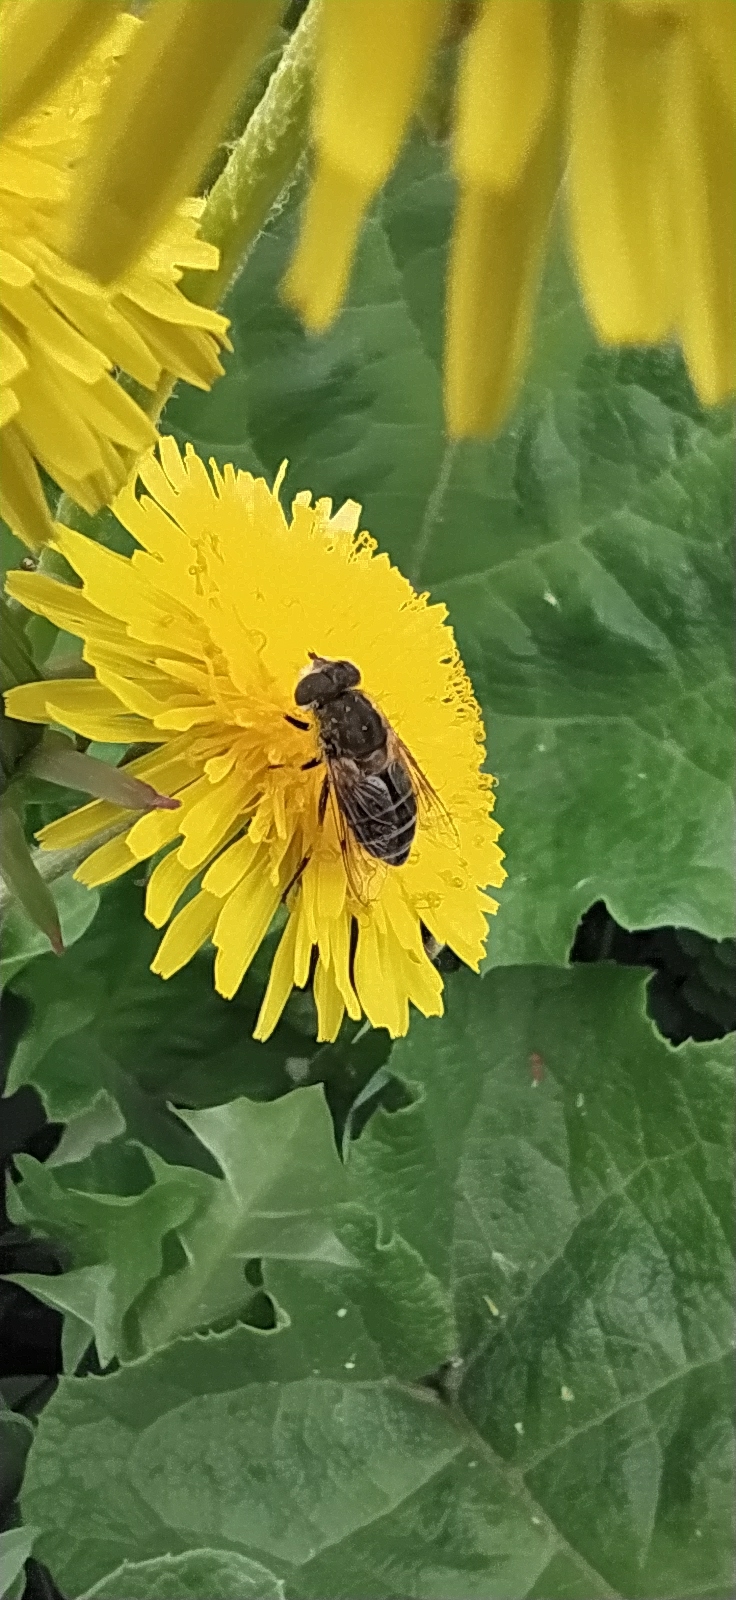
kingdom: Animalia
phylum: Arthropoda
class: Insecta
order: Diptera
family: Syrphidae
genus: Eristalis
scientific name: Eristalis arbustorum
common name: Hover fly
